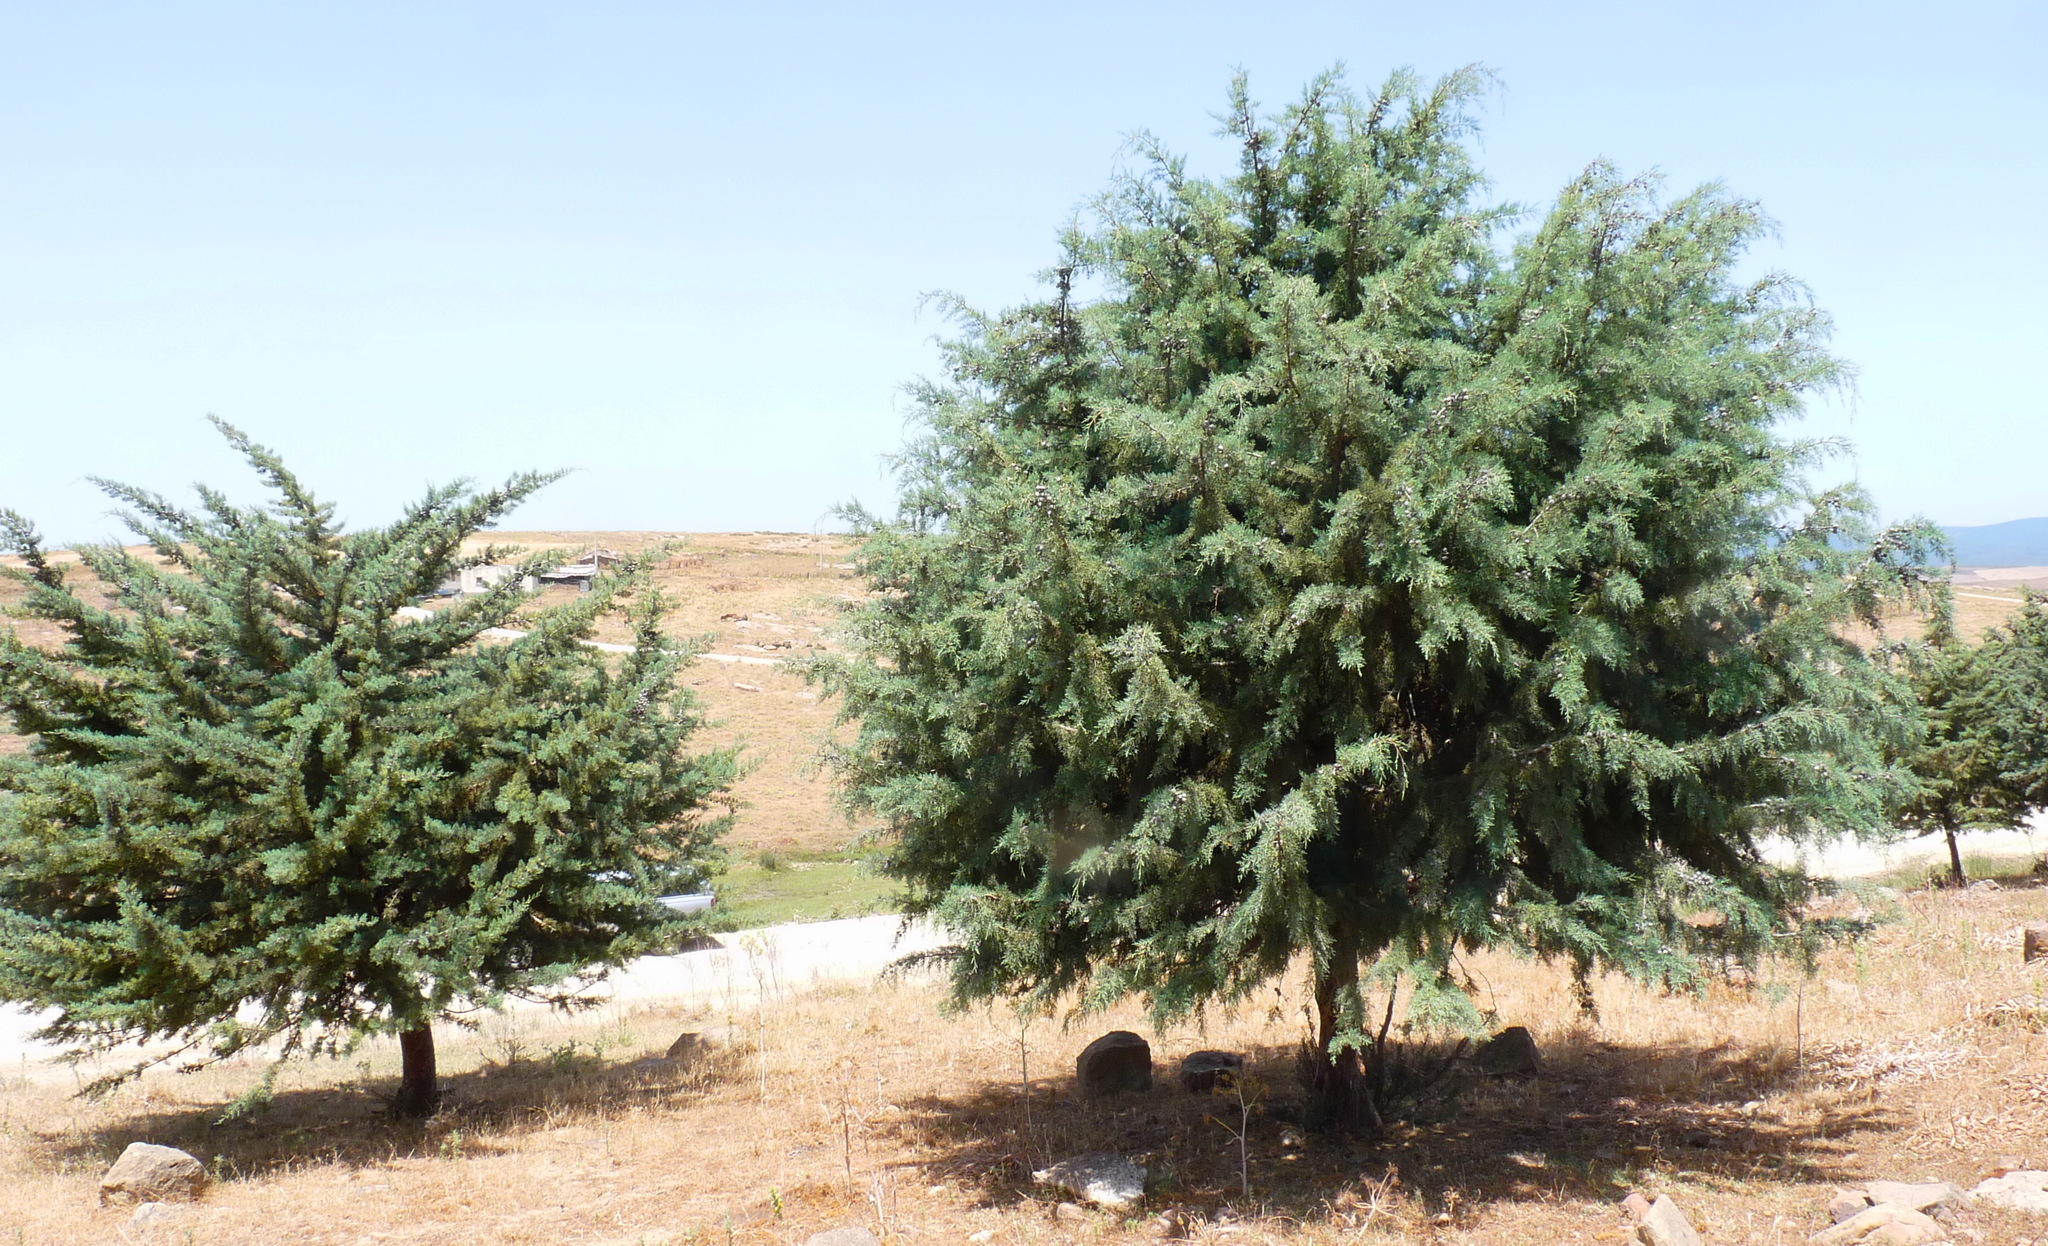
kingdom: Plantae
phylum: Tracheophyta
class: Pinopsida
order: Pinales
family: Cupressaceae
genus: Cupressus
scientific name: Cupressus arizonica
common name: Arizona cypress
